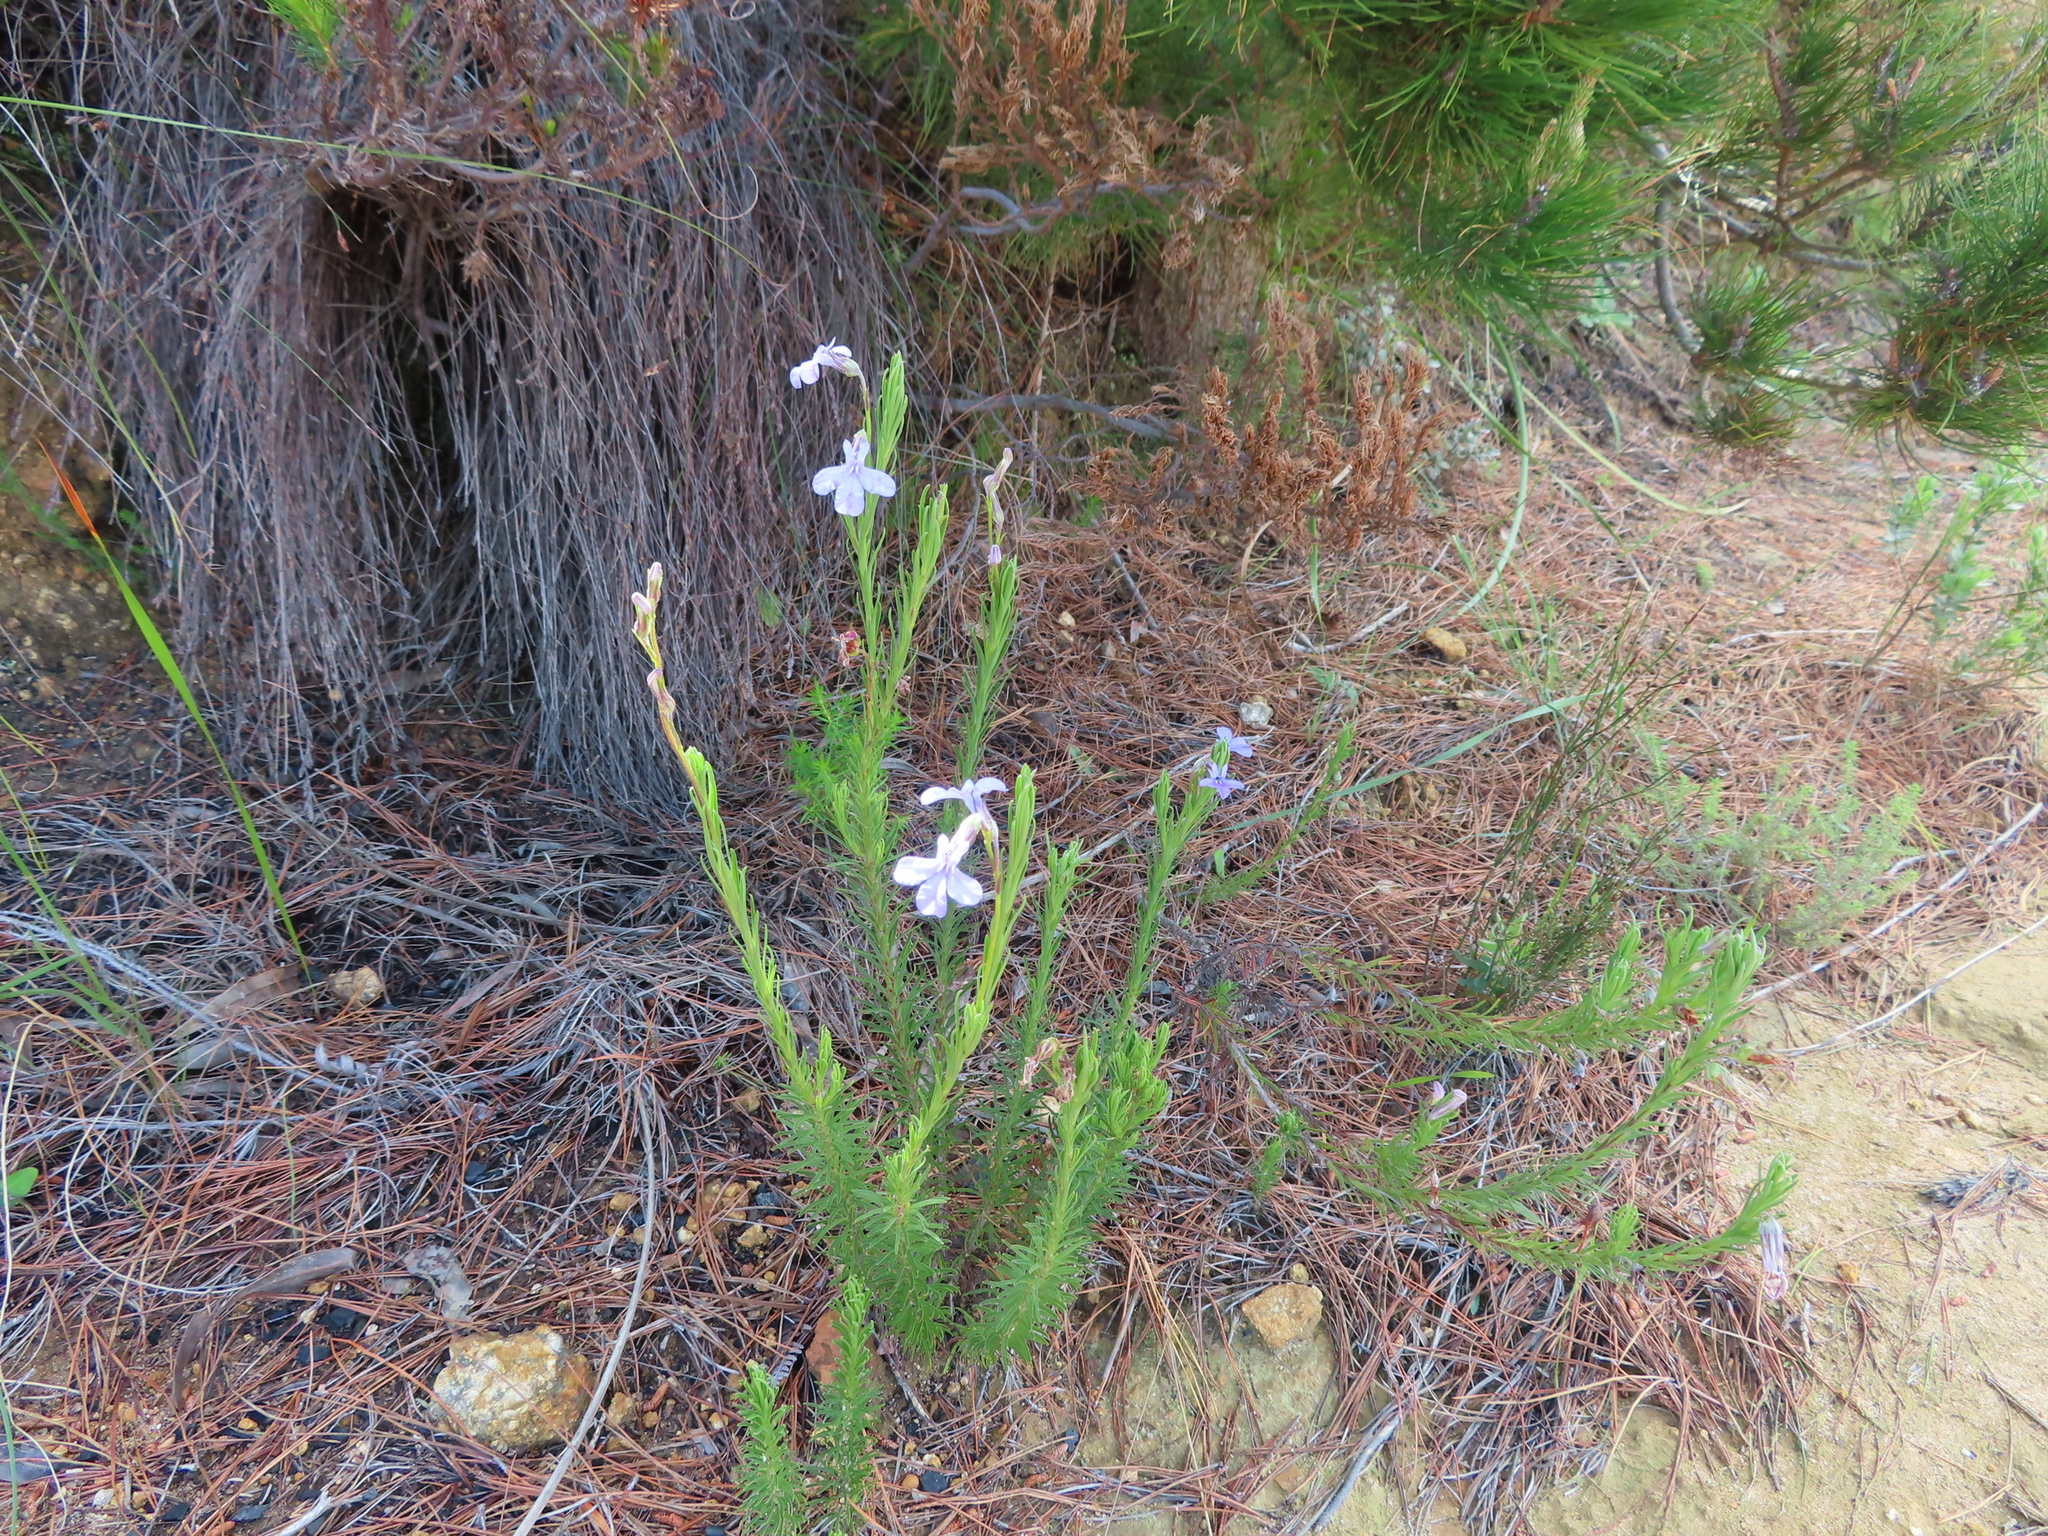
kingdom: Plantae
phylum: Tracheophyta
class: Magnoliopsida
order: Asterales
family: Campanulaceae
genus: Lobelia
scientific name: Lobelia pinifolia
